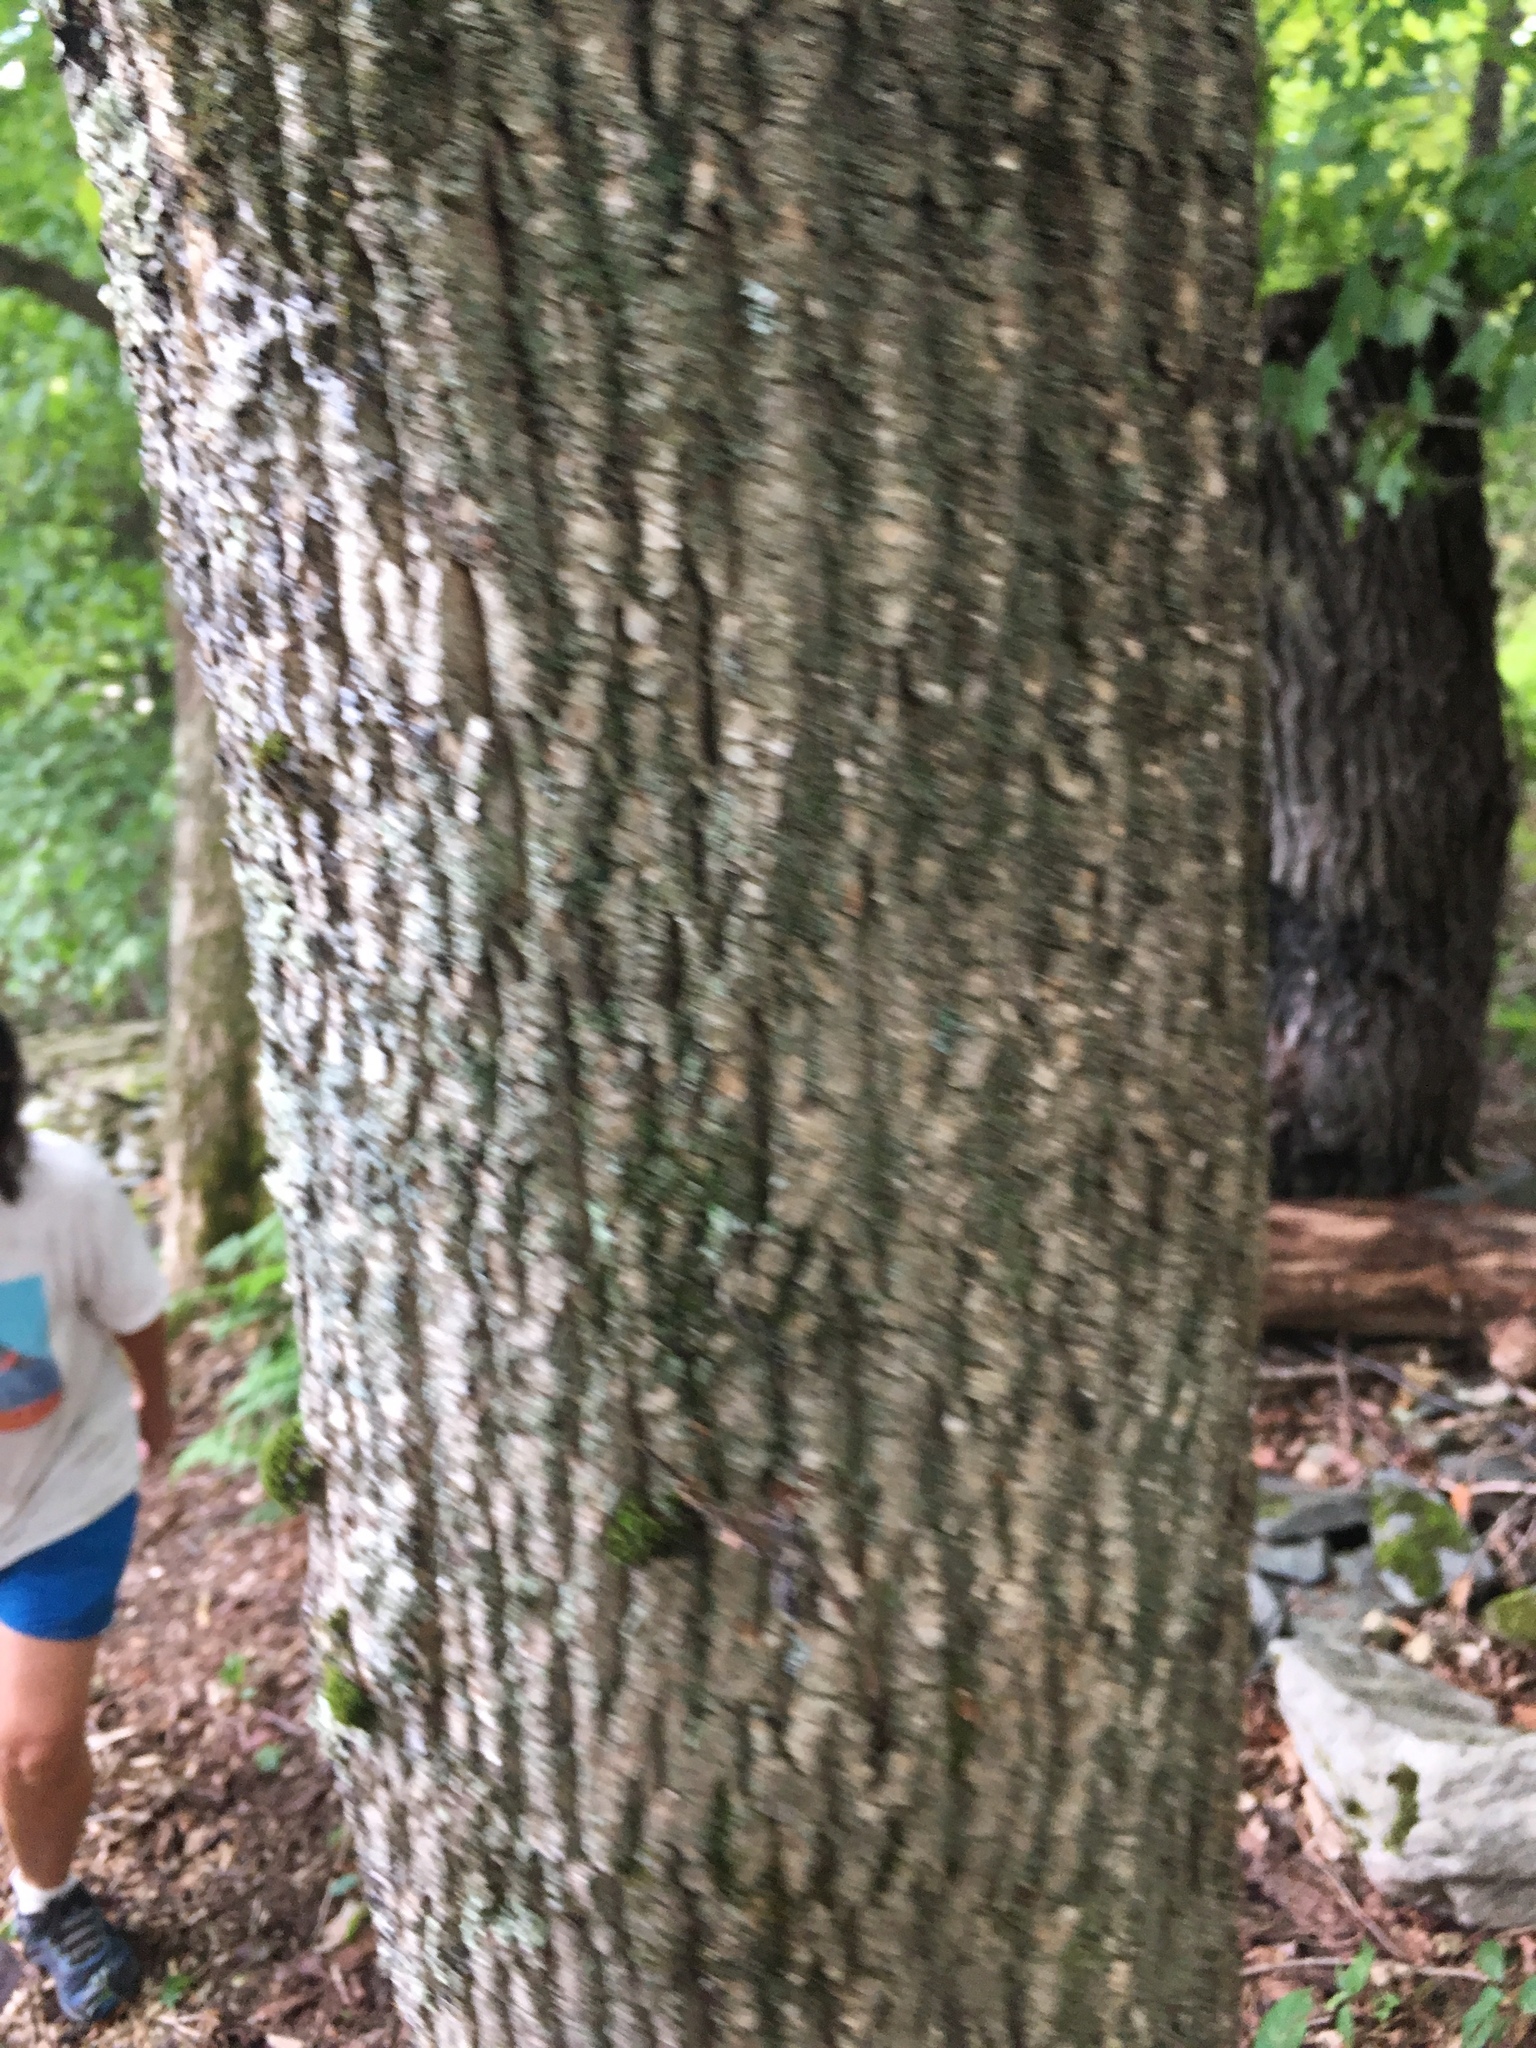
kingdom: Plantae
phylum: Tracheophyta
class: Magnoliopsida
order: Lamiales
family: Oleaceae
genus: Fraxinus
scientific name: Fraxinus americana
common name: White ash
